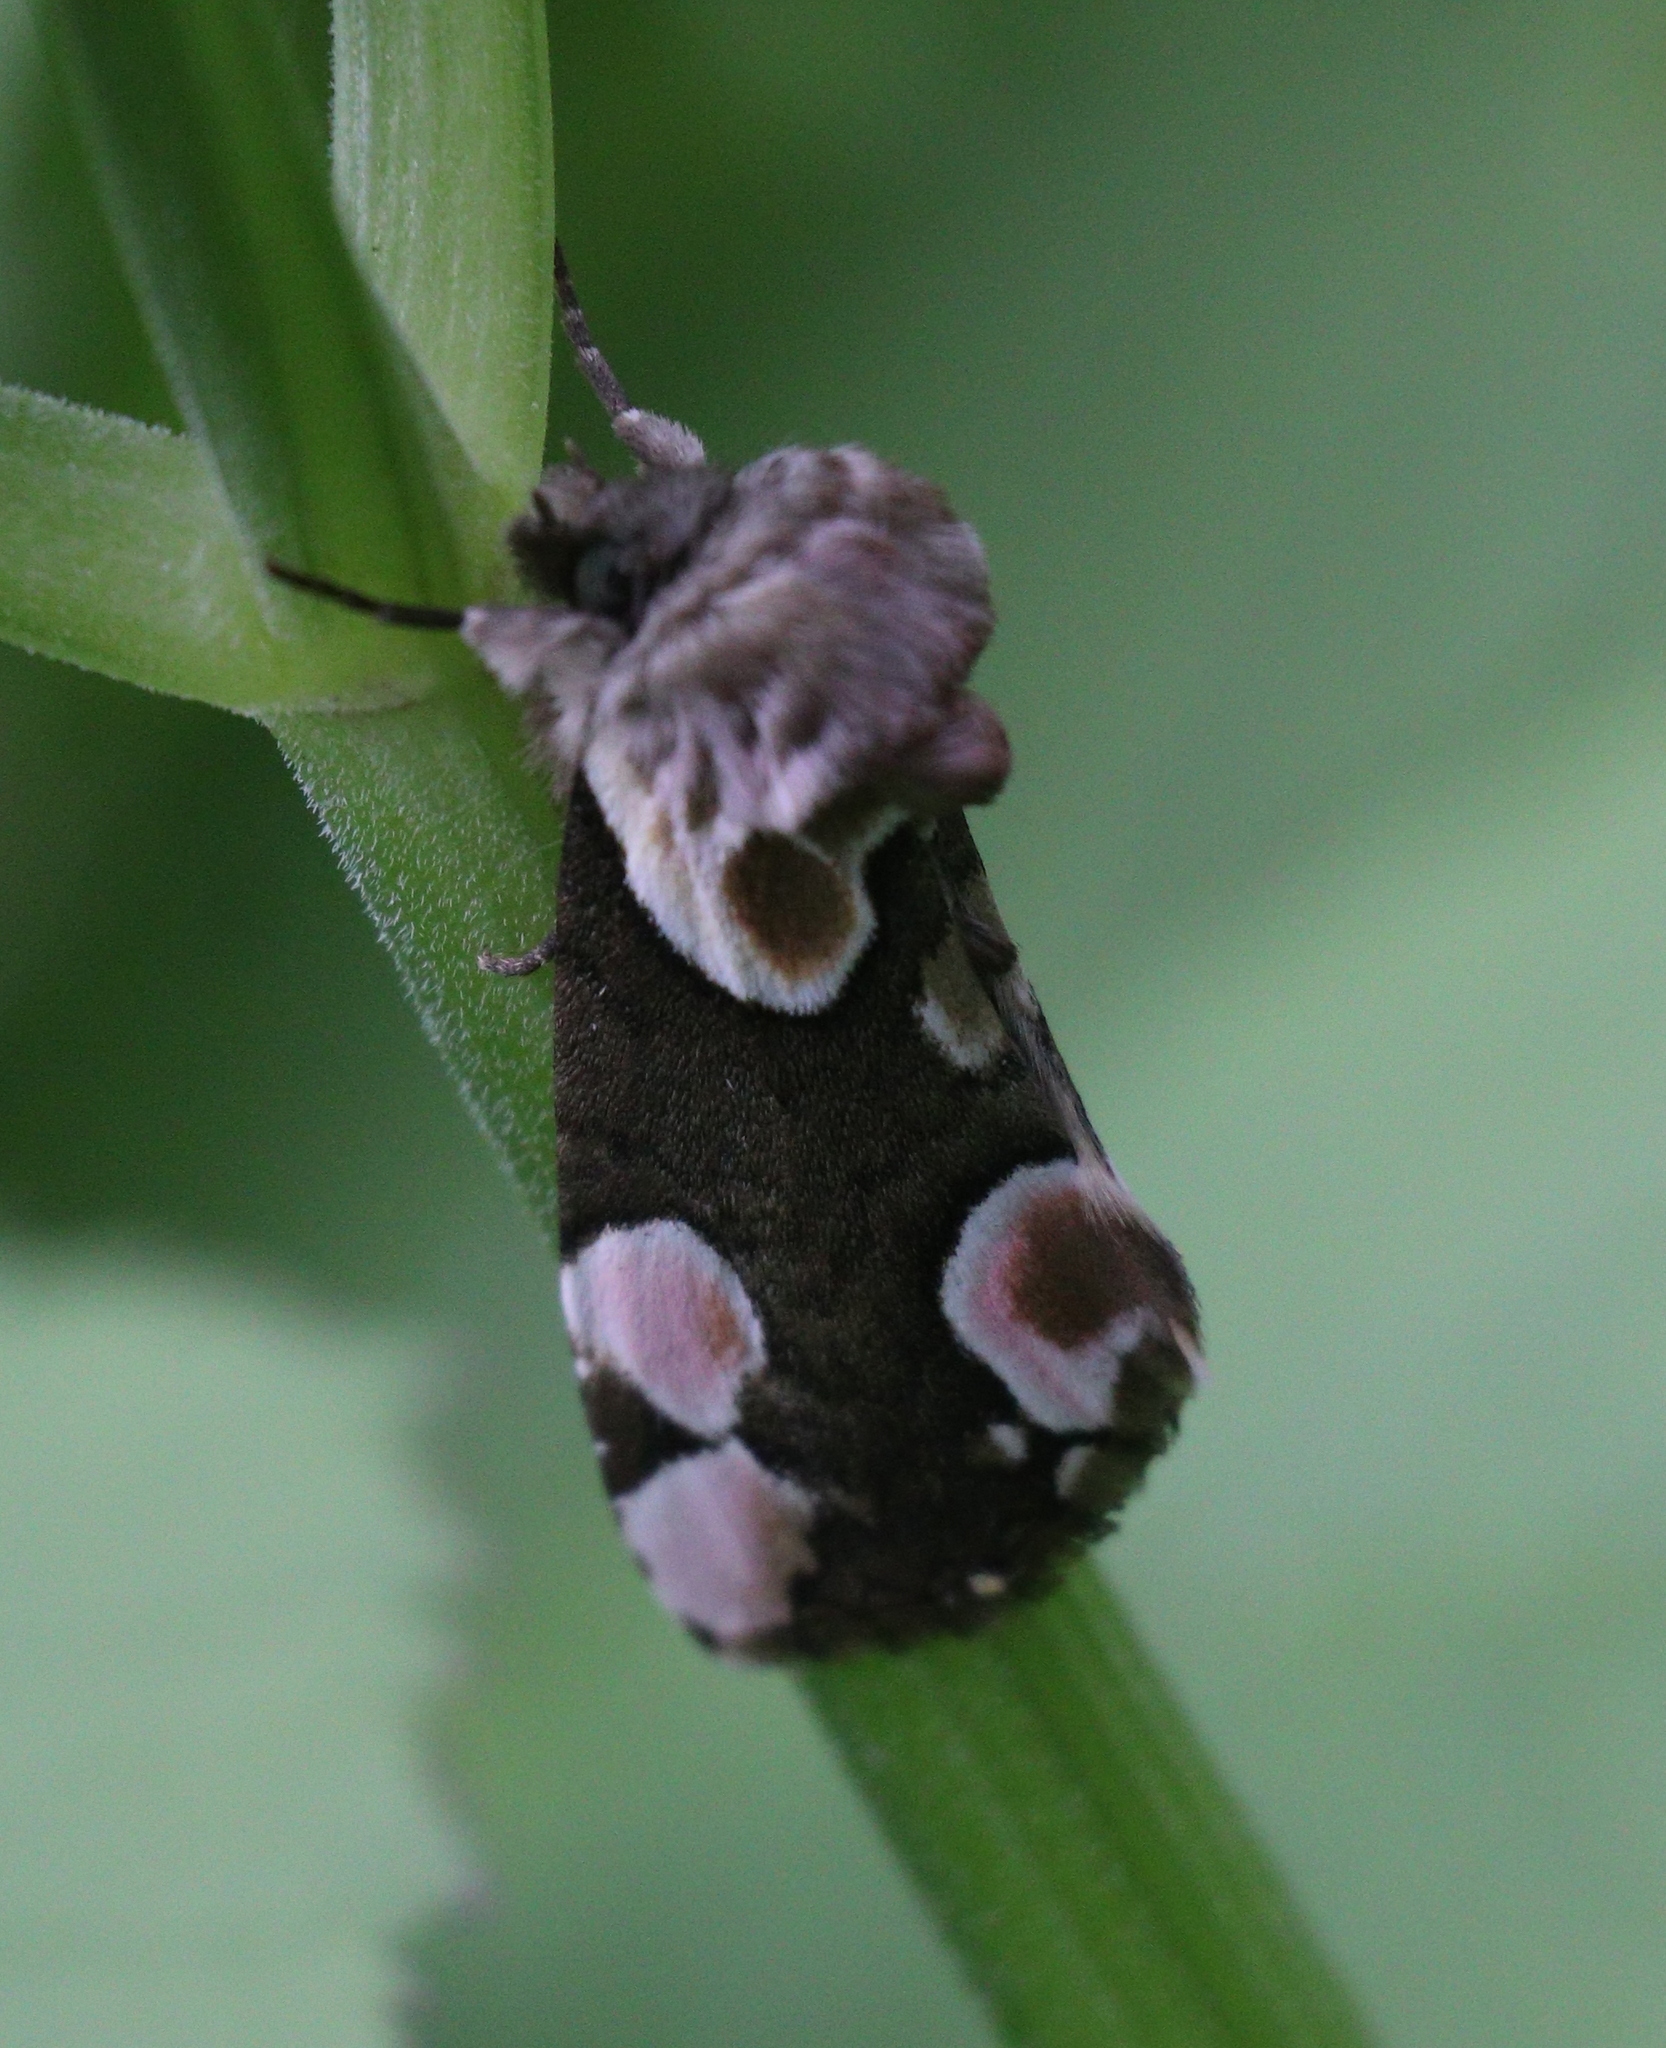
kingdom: Animalia
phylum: Arthropoda
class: Insecta
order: Lepidoptera
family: Drepanidae
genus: Thyatira
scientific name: Thyatira batis
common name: Peach blossom
